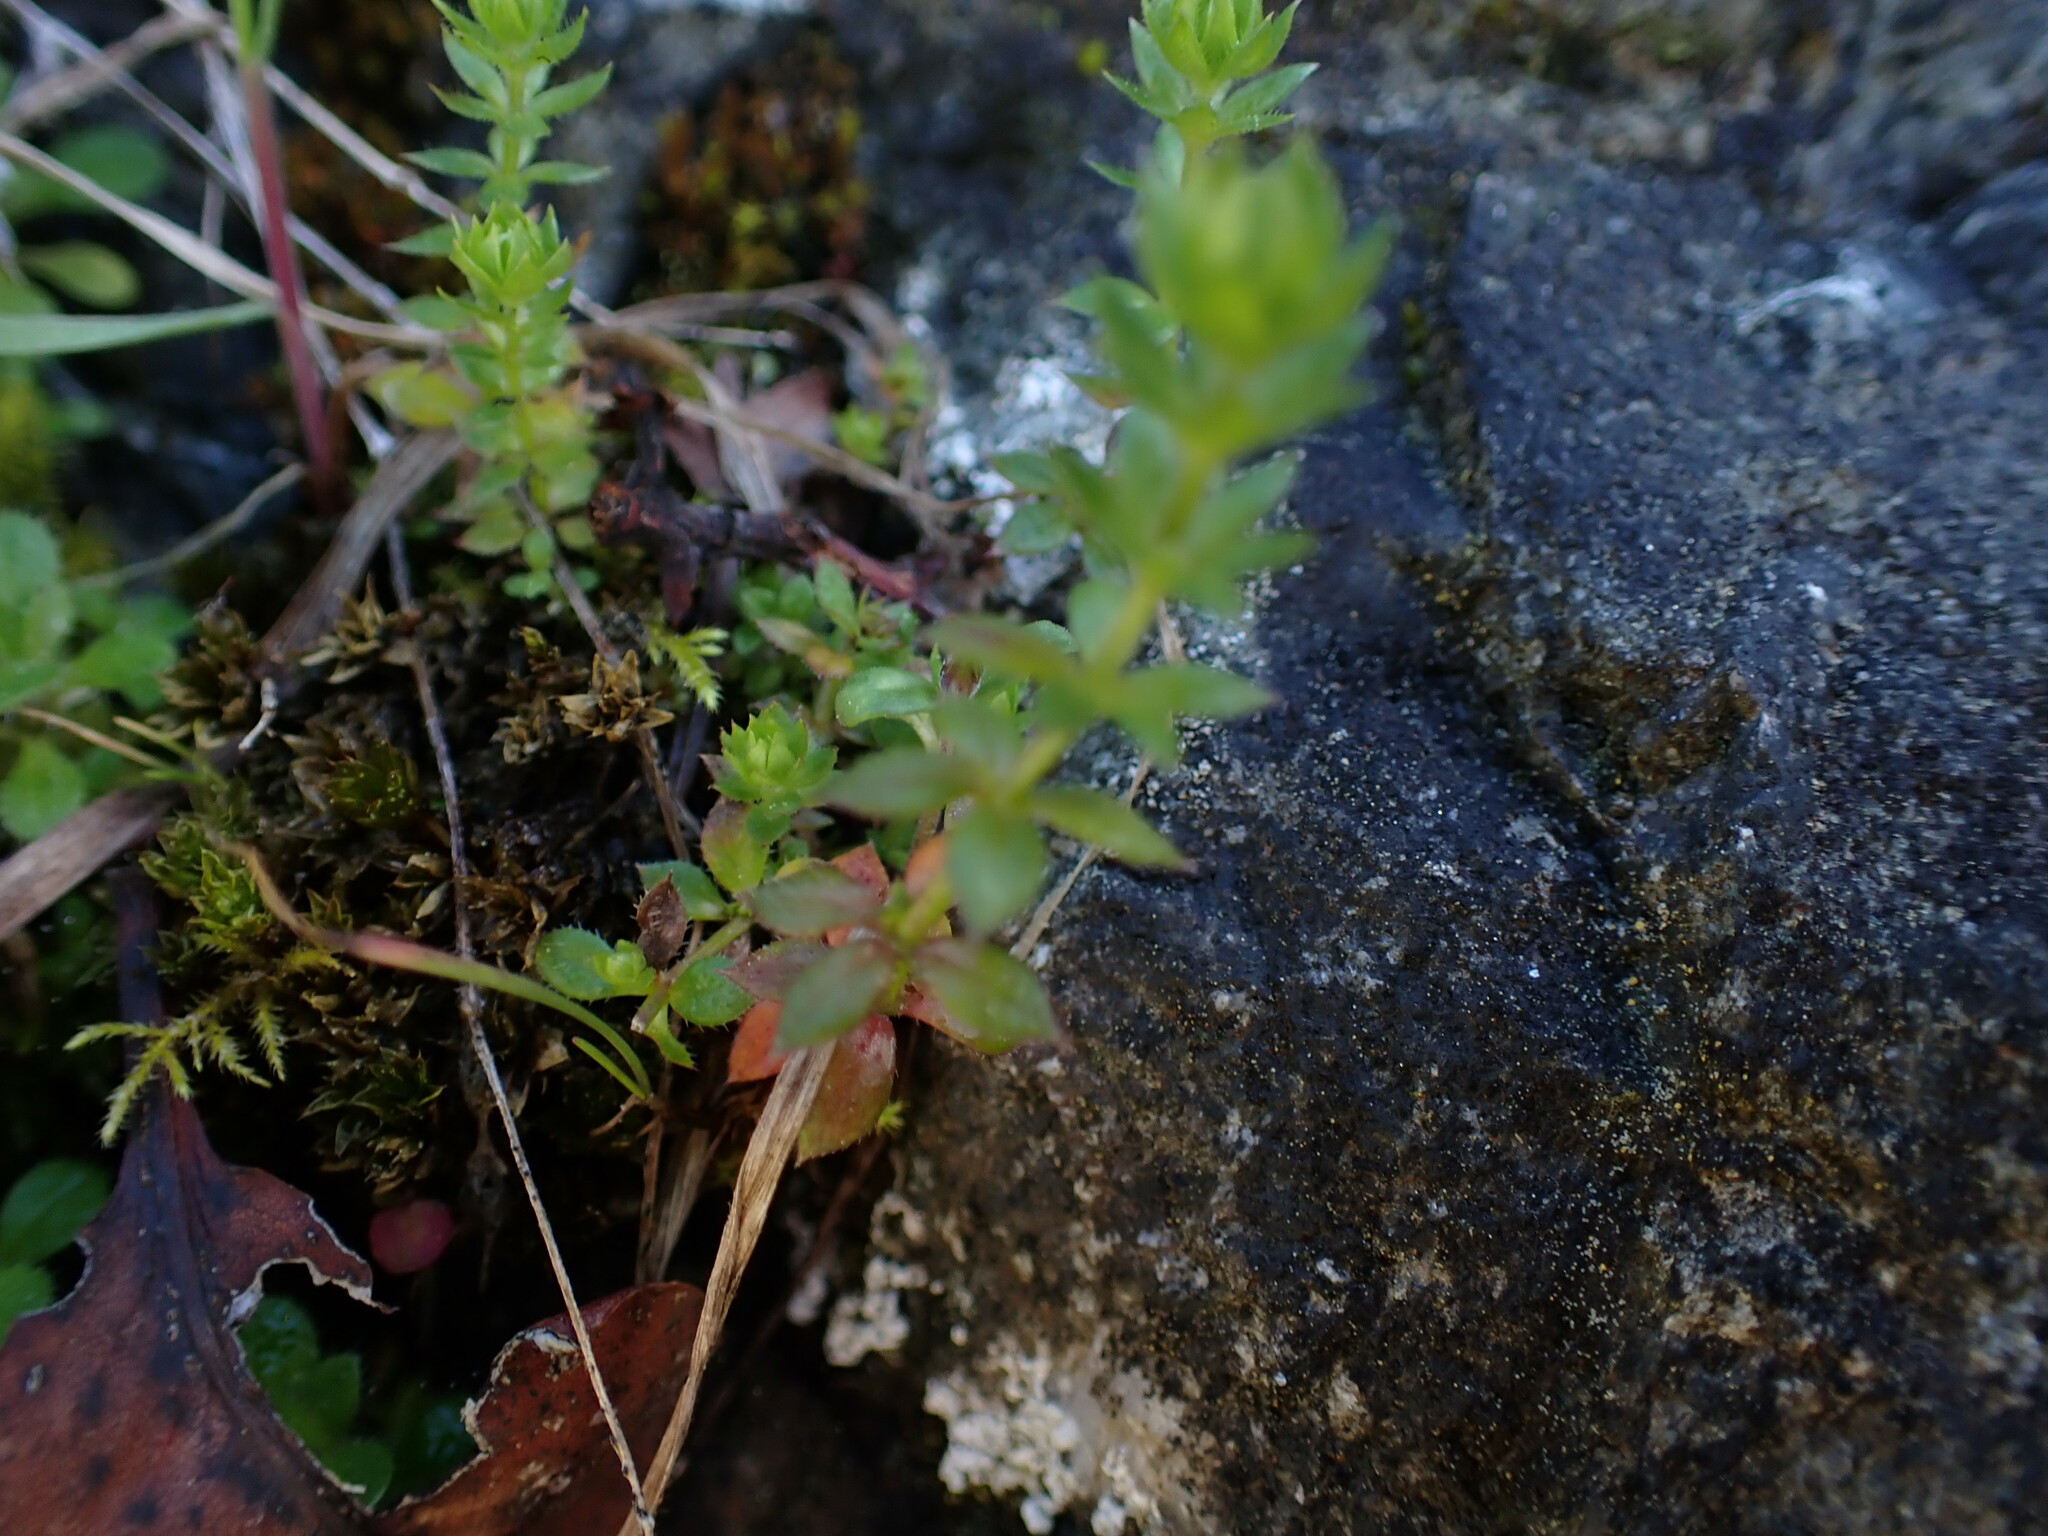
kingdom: Plantae
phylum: Tracheophyta
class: Magnoliopsida
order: Gentianales
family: Rubiaceae
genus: Sherardia
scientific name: Sherardia arvensis
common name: Field madder
